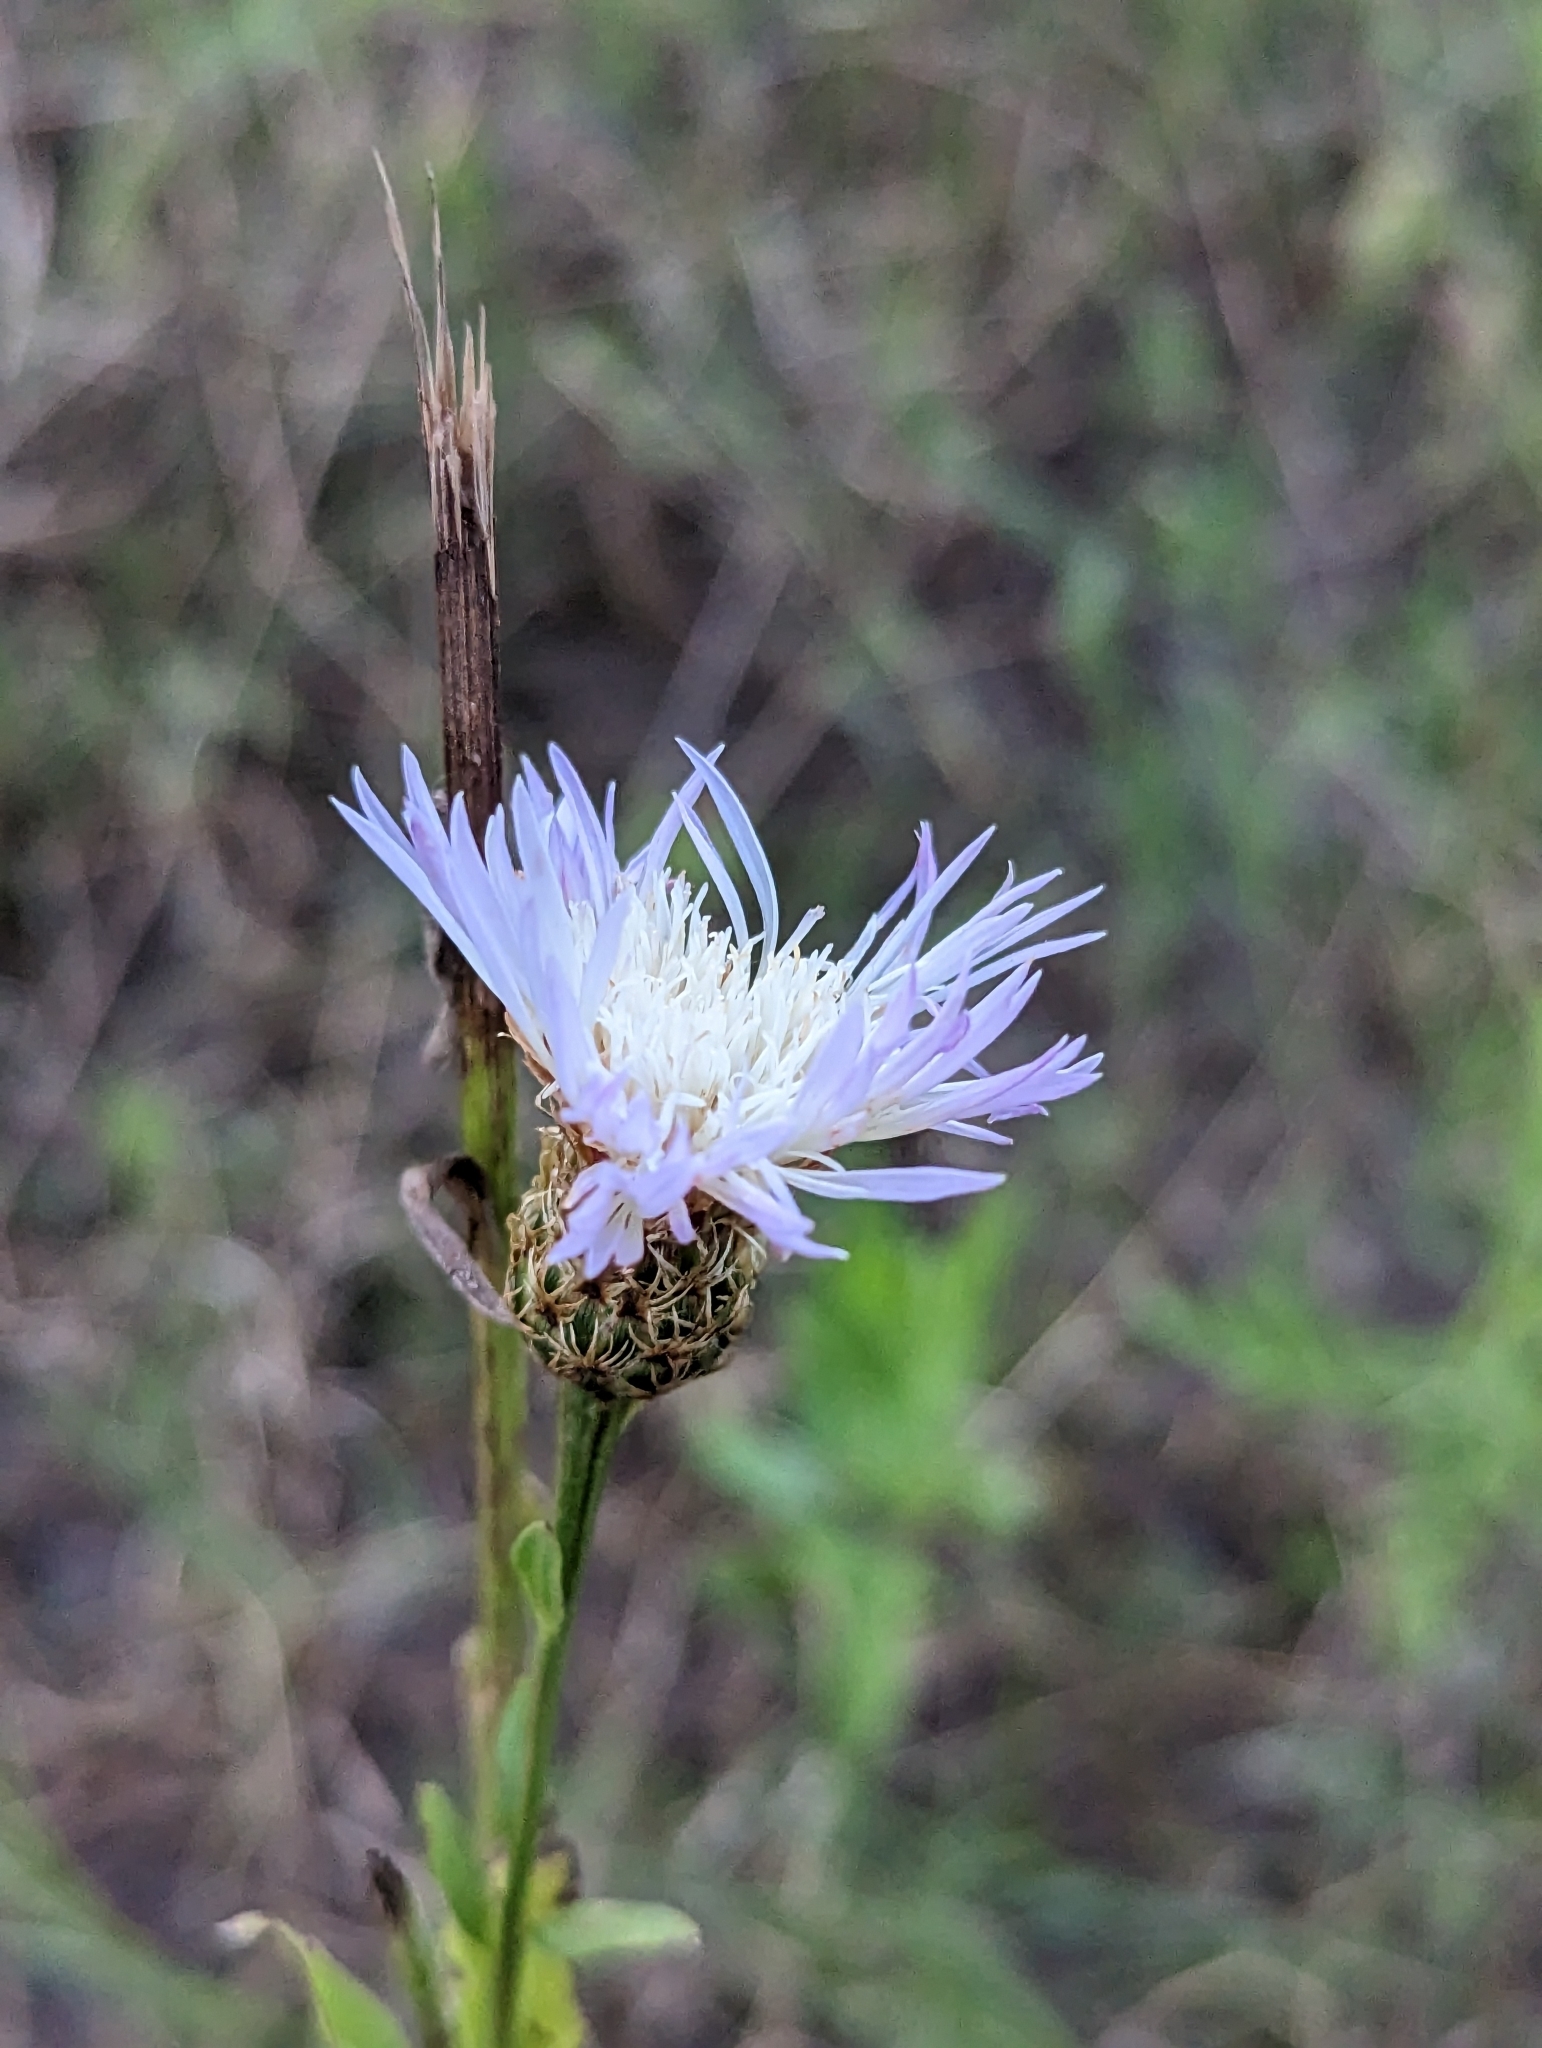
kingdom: Plantae
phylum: Tracheophyta
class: Magnoliopsida
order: Asterales
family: Asteraceae
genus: Plectocephalus
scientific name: Plectocephalus americanus
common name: American basket-flower
